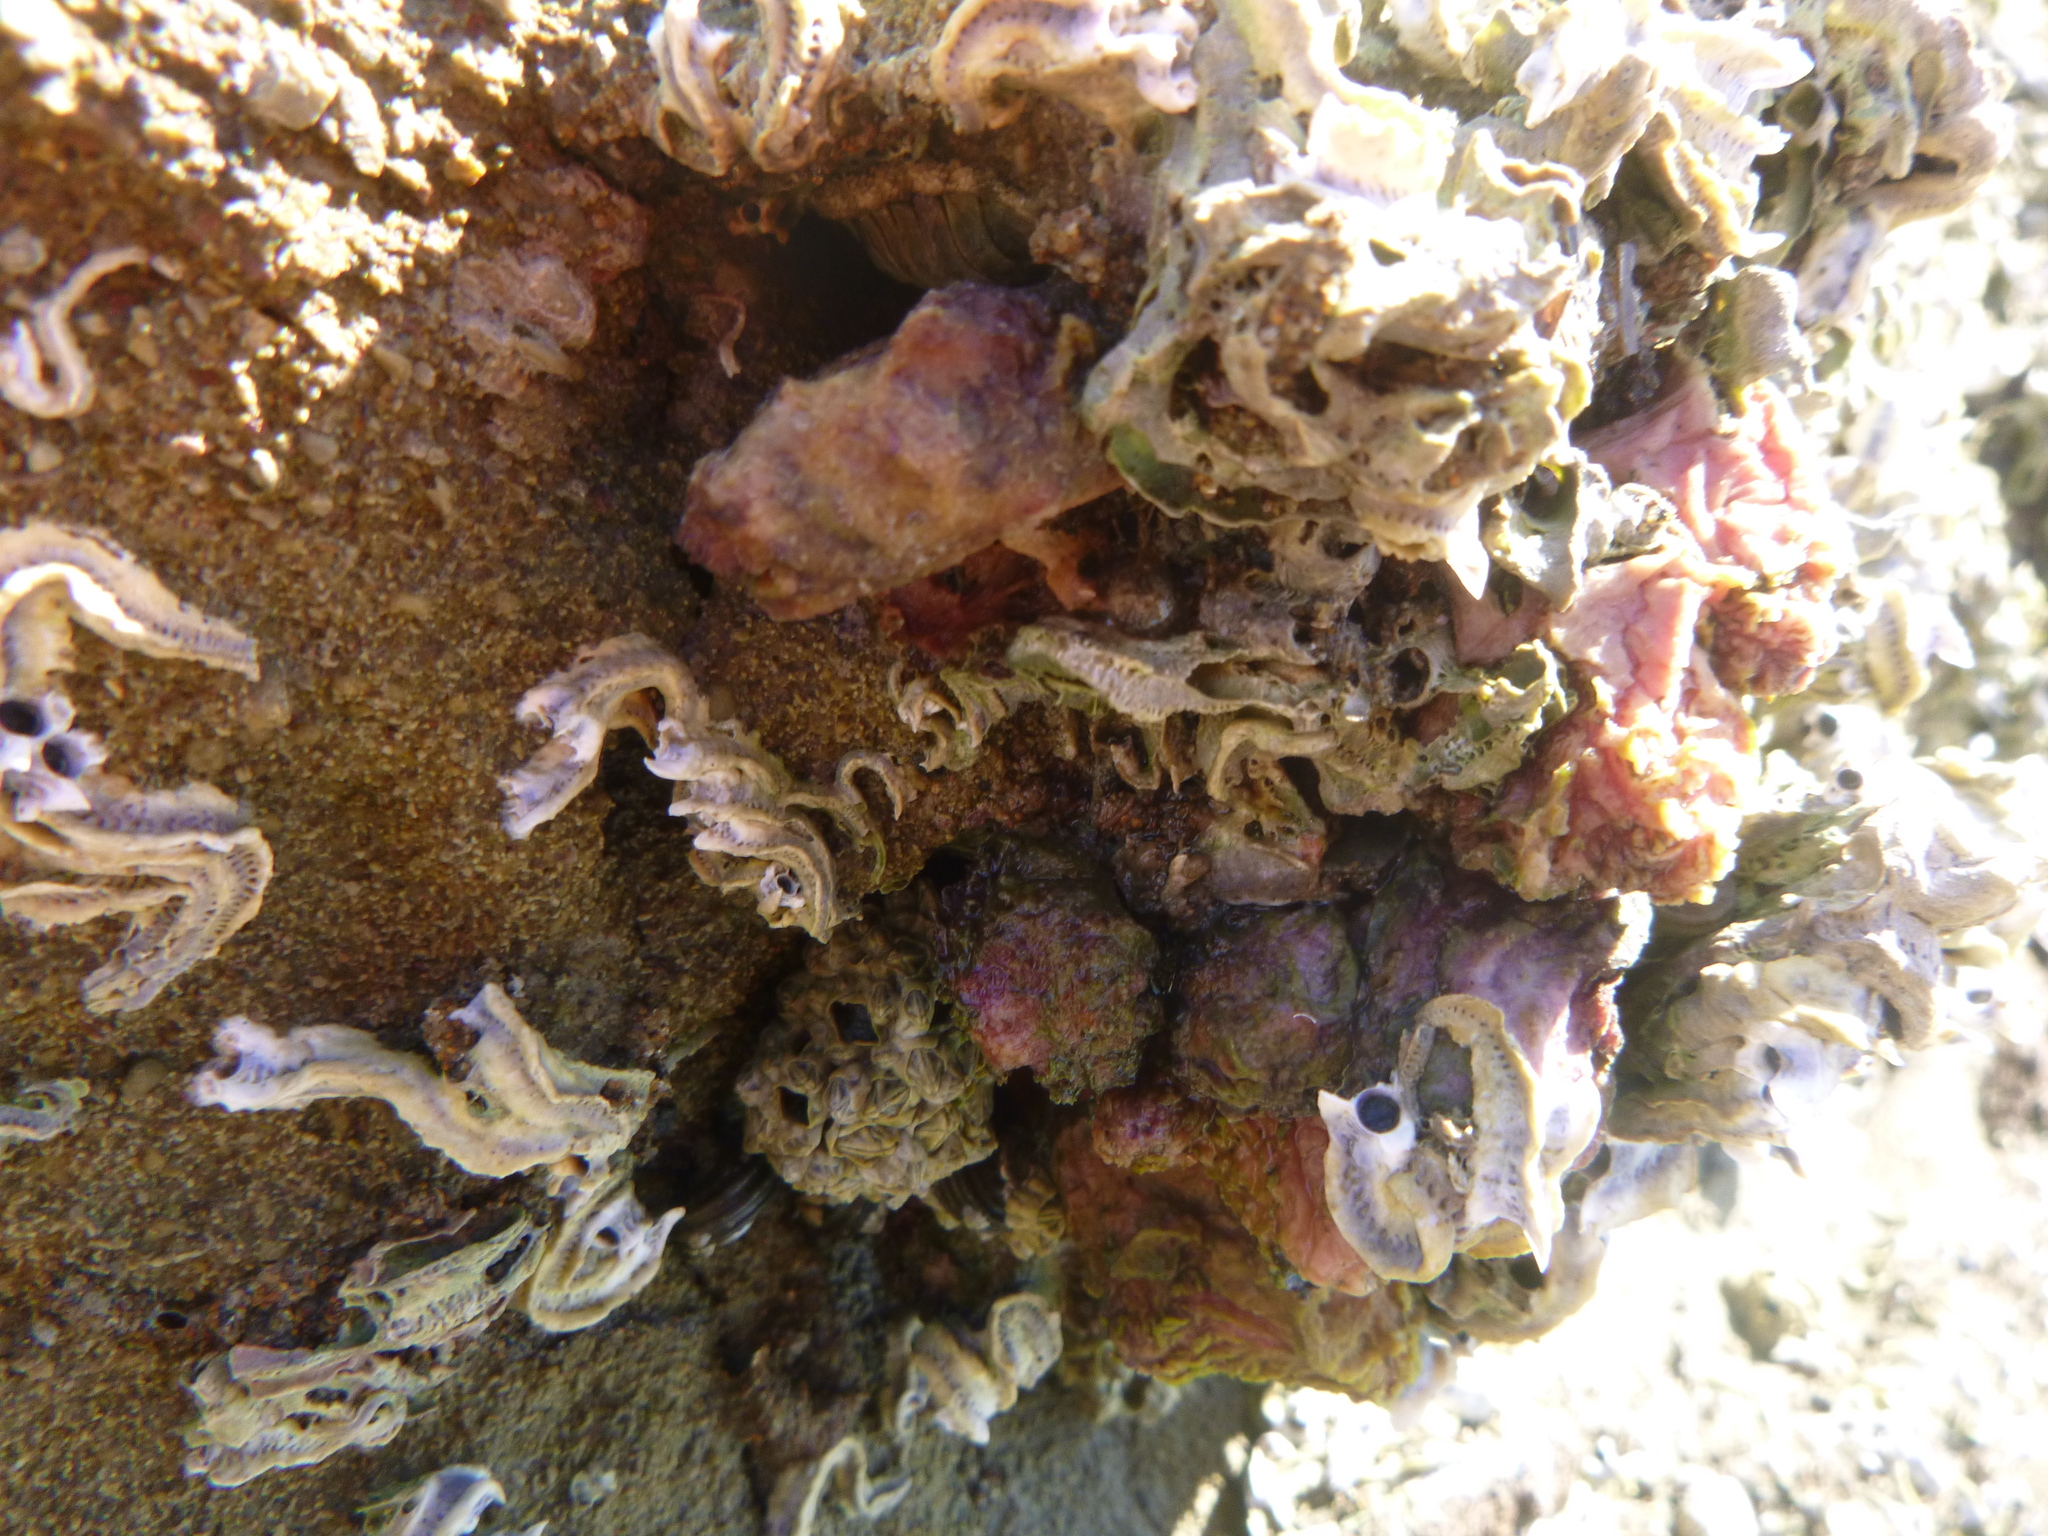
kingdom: Animalia
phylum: Annelida
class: Polychaeta
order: Sabellida
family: Serpulidae
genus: Spirobranchus
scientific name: Spirobranchus cariniferus
